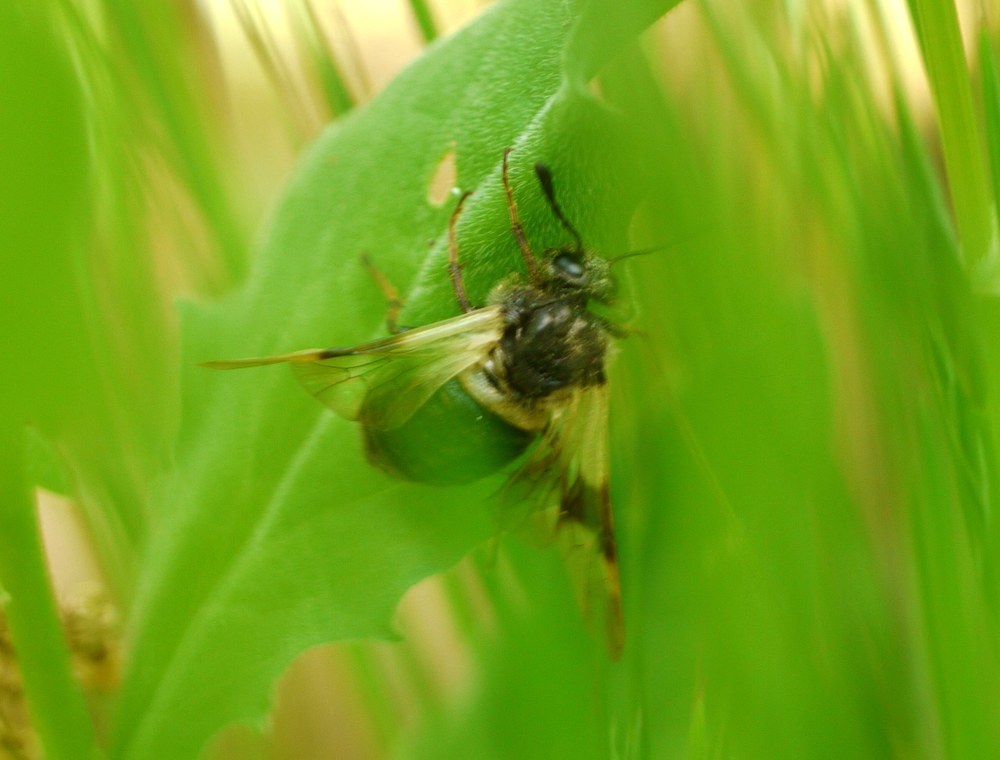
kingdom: Animalia
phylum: Arthropoda
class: Insecta
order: Hymenoptera
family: Cimbicidae
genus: Abia
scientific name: Abia fasciata
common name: Banded honeysuckle sawfly
